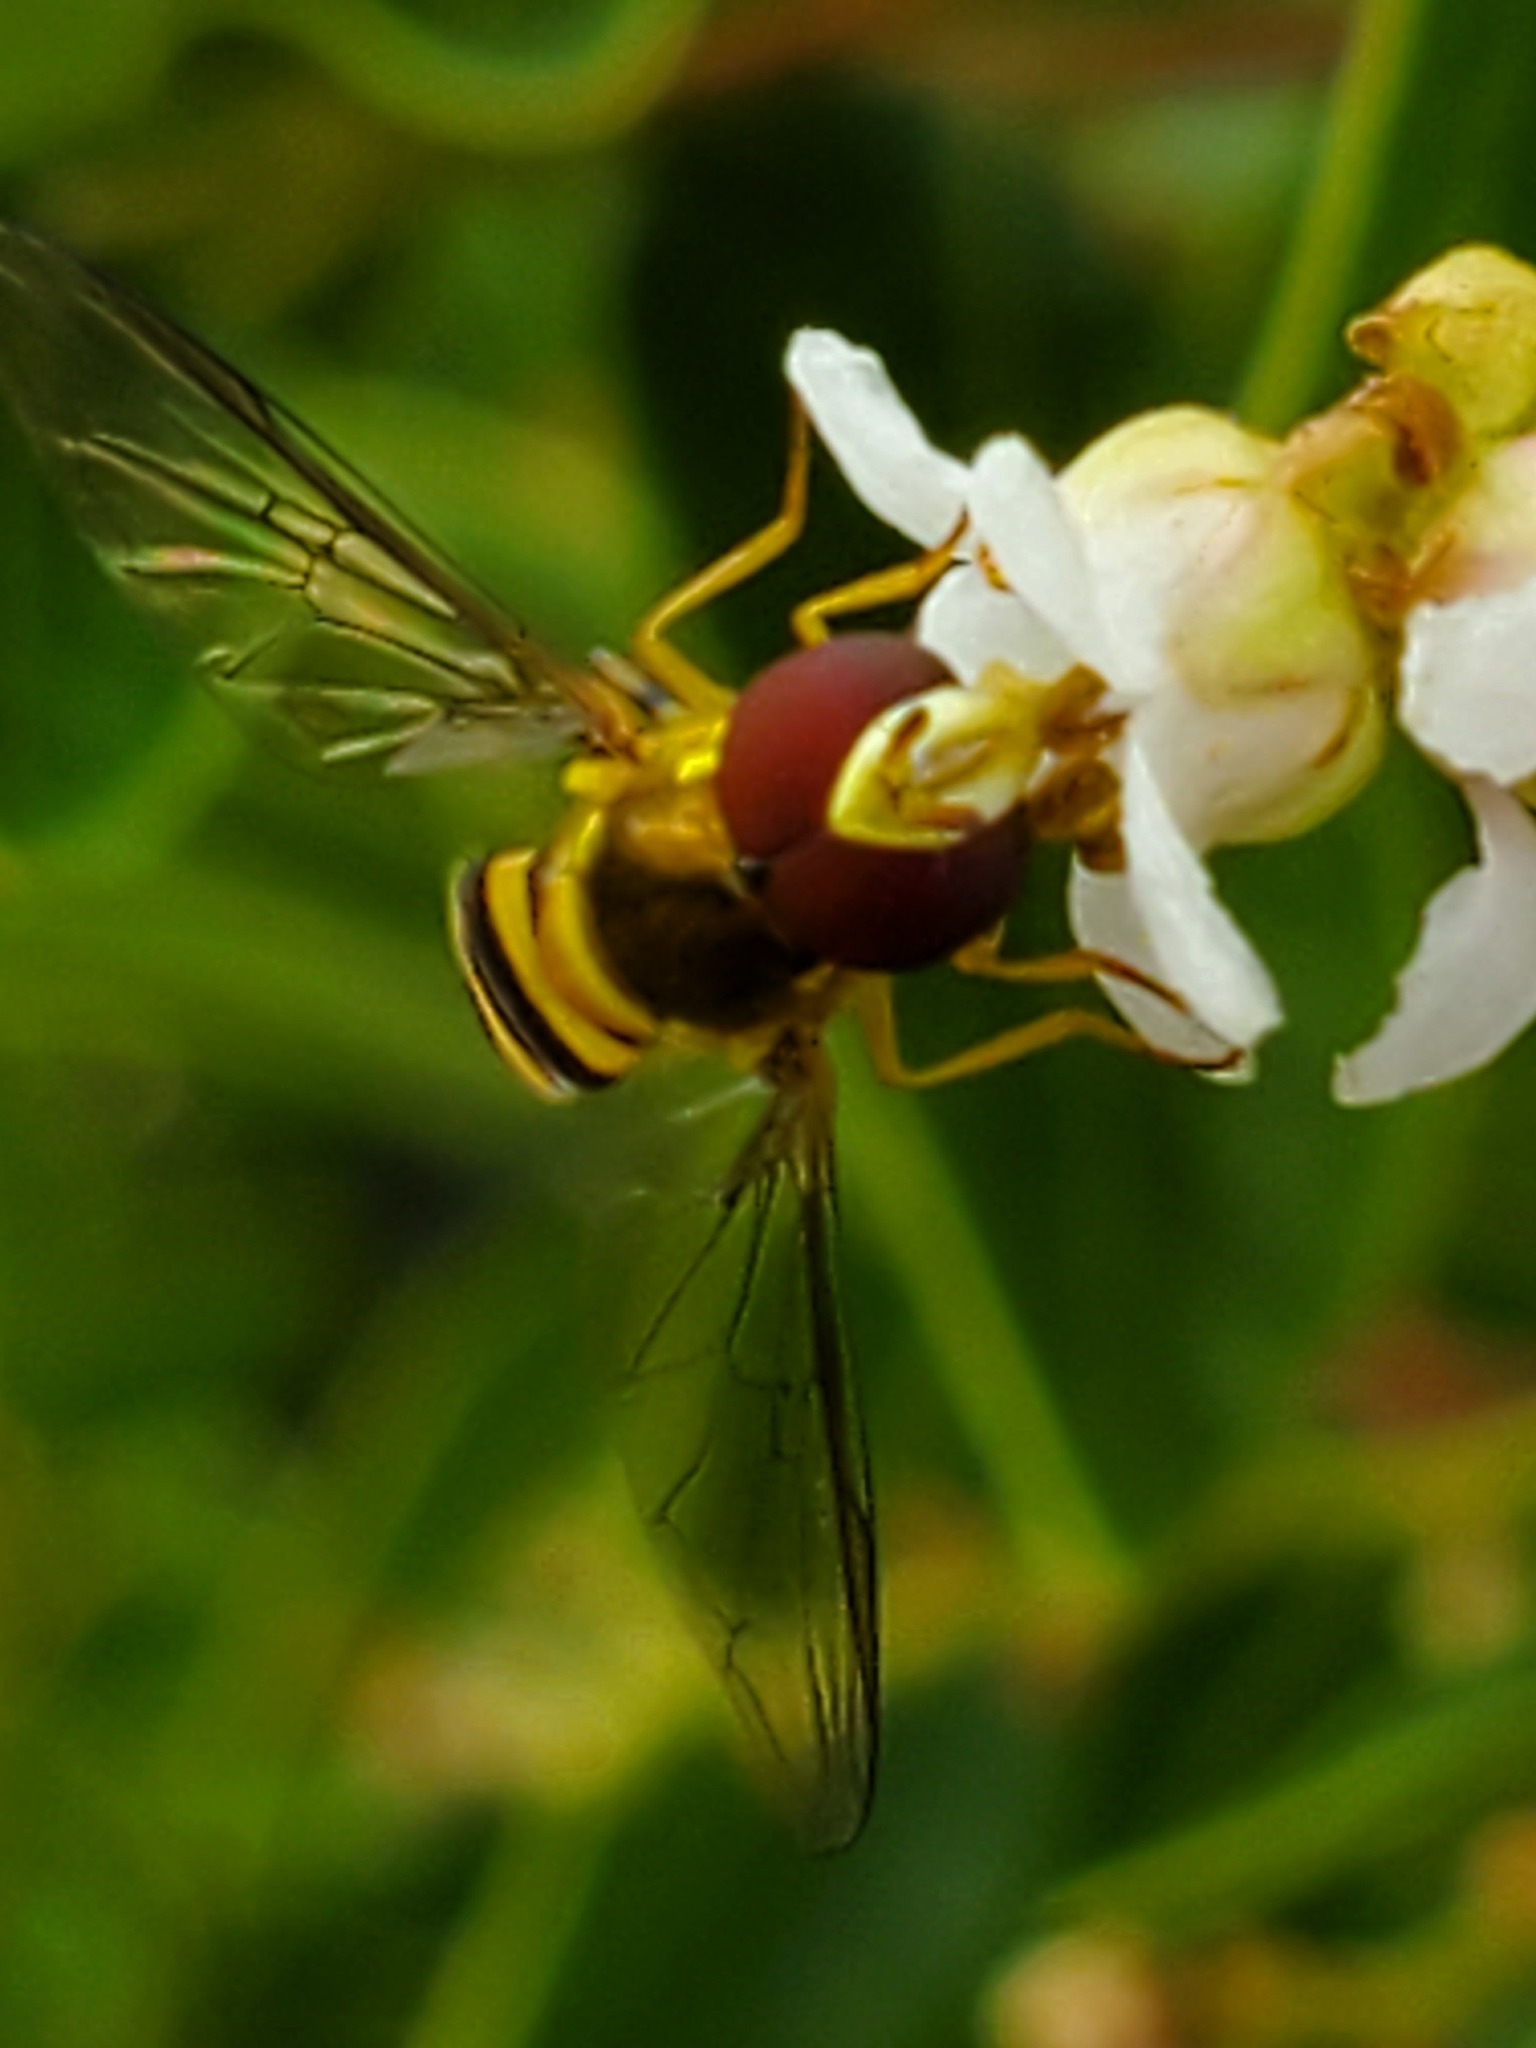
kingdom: Animalia
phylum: Arthropoda
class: Insecta
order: Diptera
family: Syrphidae
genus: Allograpta
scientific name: Allograpta obliqua
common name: Common oblique syrphid
